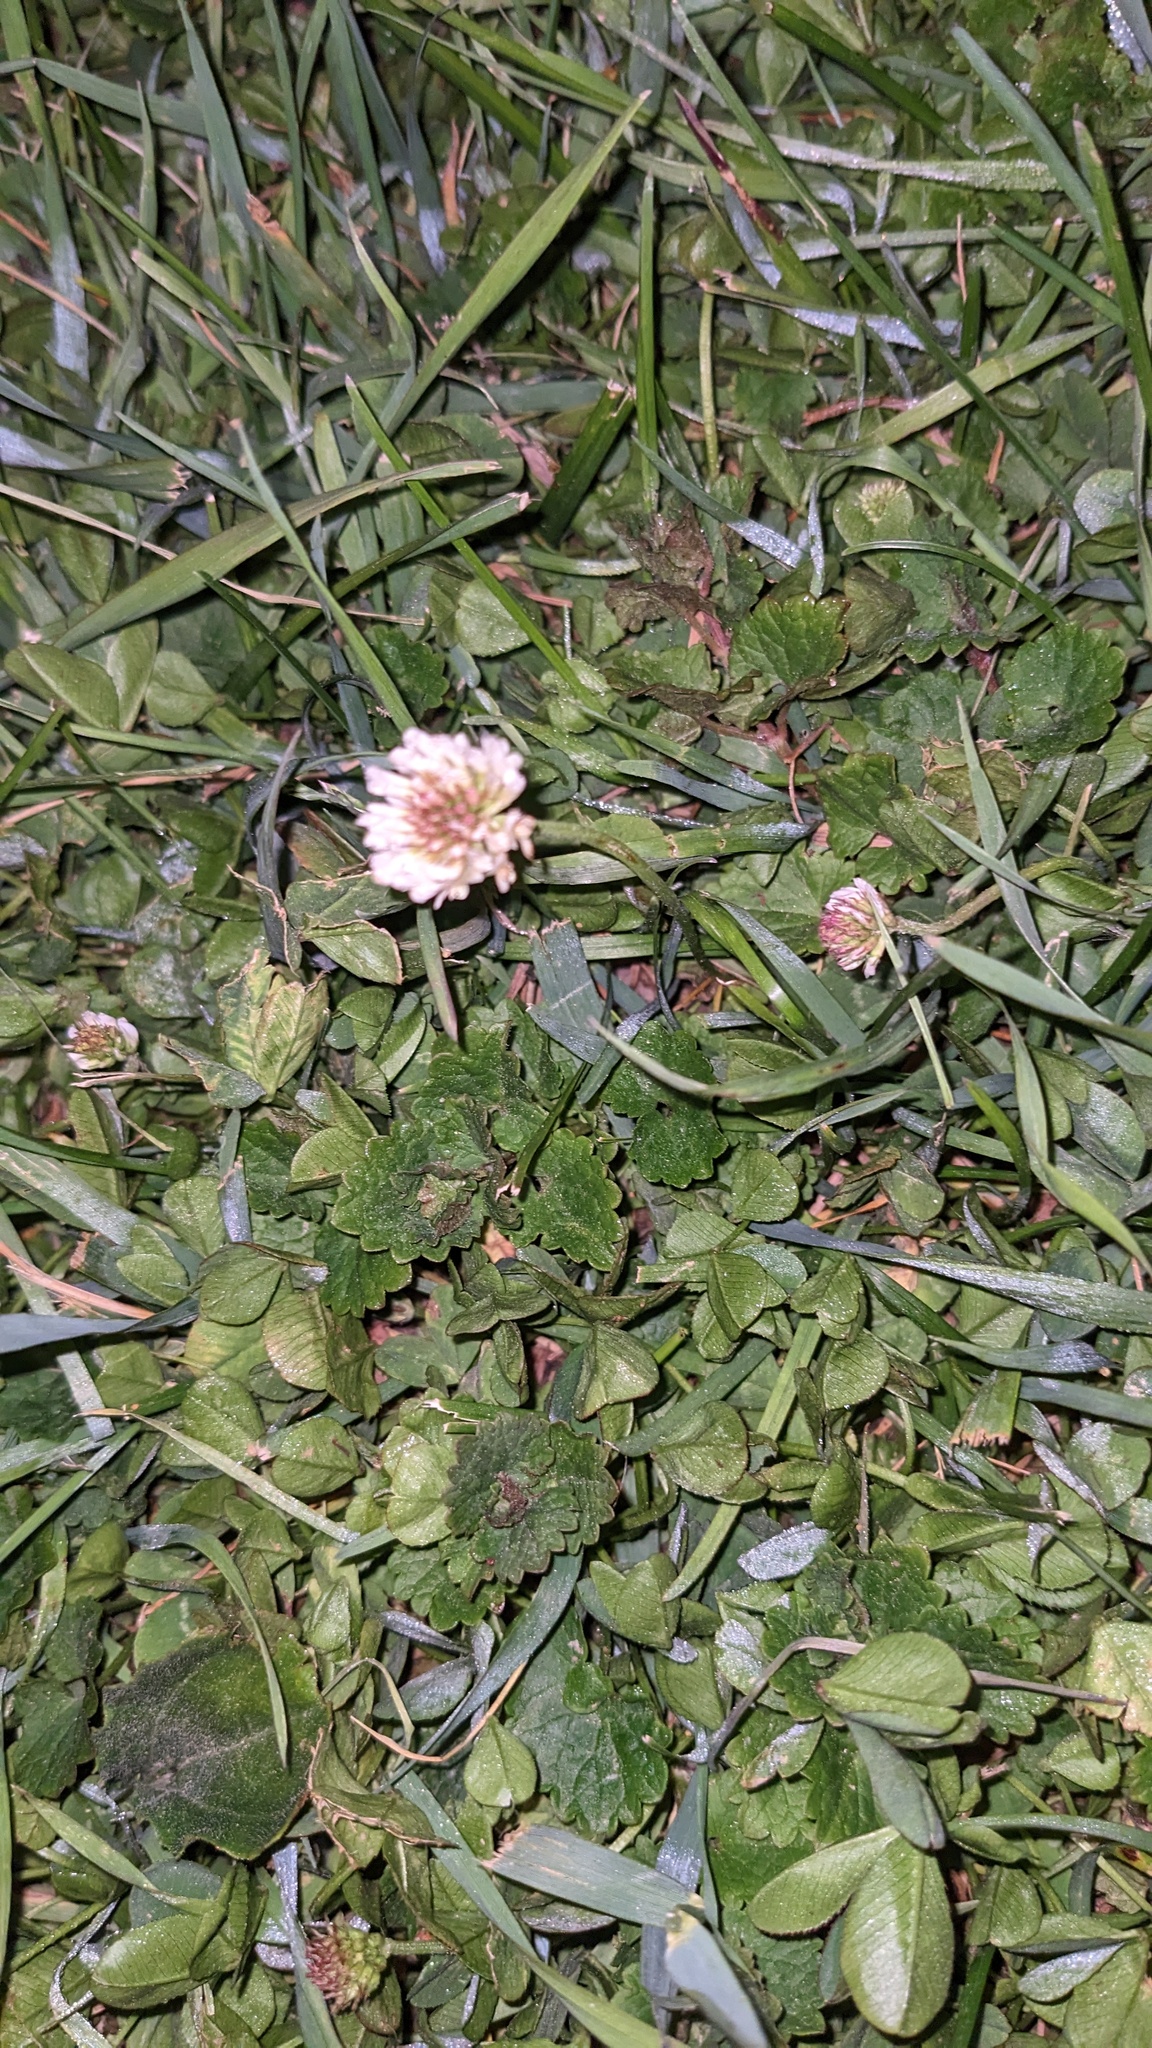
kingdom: Plantae
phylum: Tracheophyta
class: Magnoliopsida
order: Fabales
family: Fabaceae
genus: Trifolium
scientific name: Trifolium repens
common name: White clover
